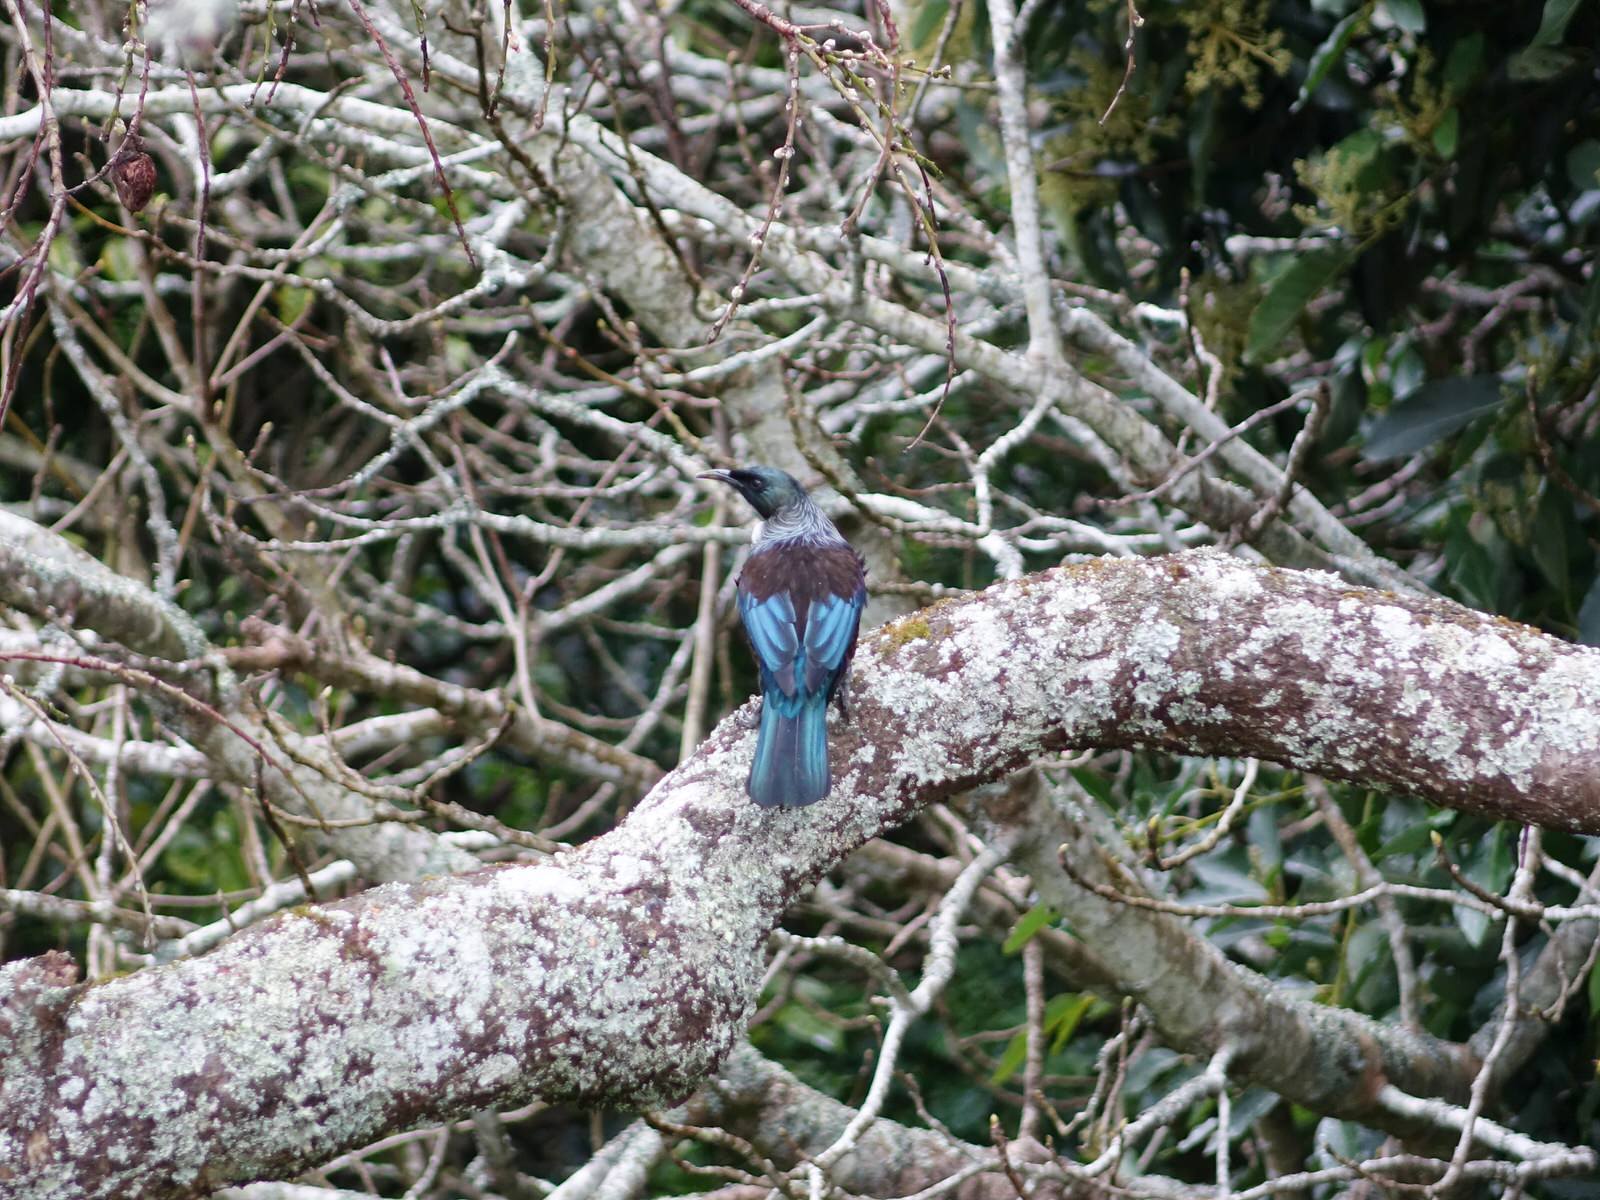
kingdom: Animalia
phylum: Chordata
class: Aves
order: Passeriformes
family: Meliphagidae
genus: Prosthemadera
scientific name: Prosthemadera novaeseelandiae
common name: Tui
